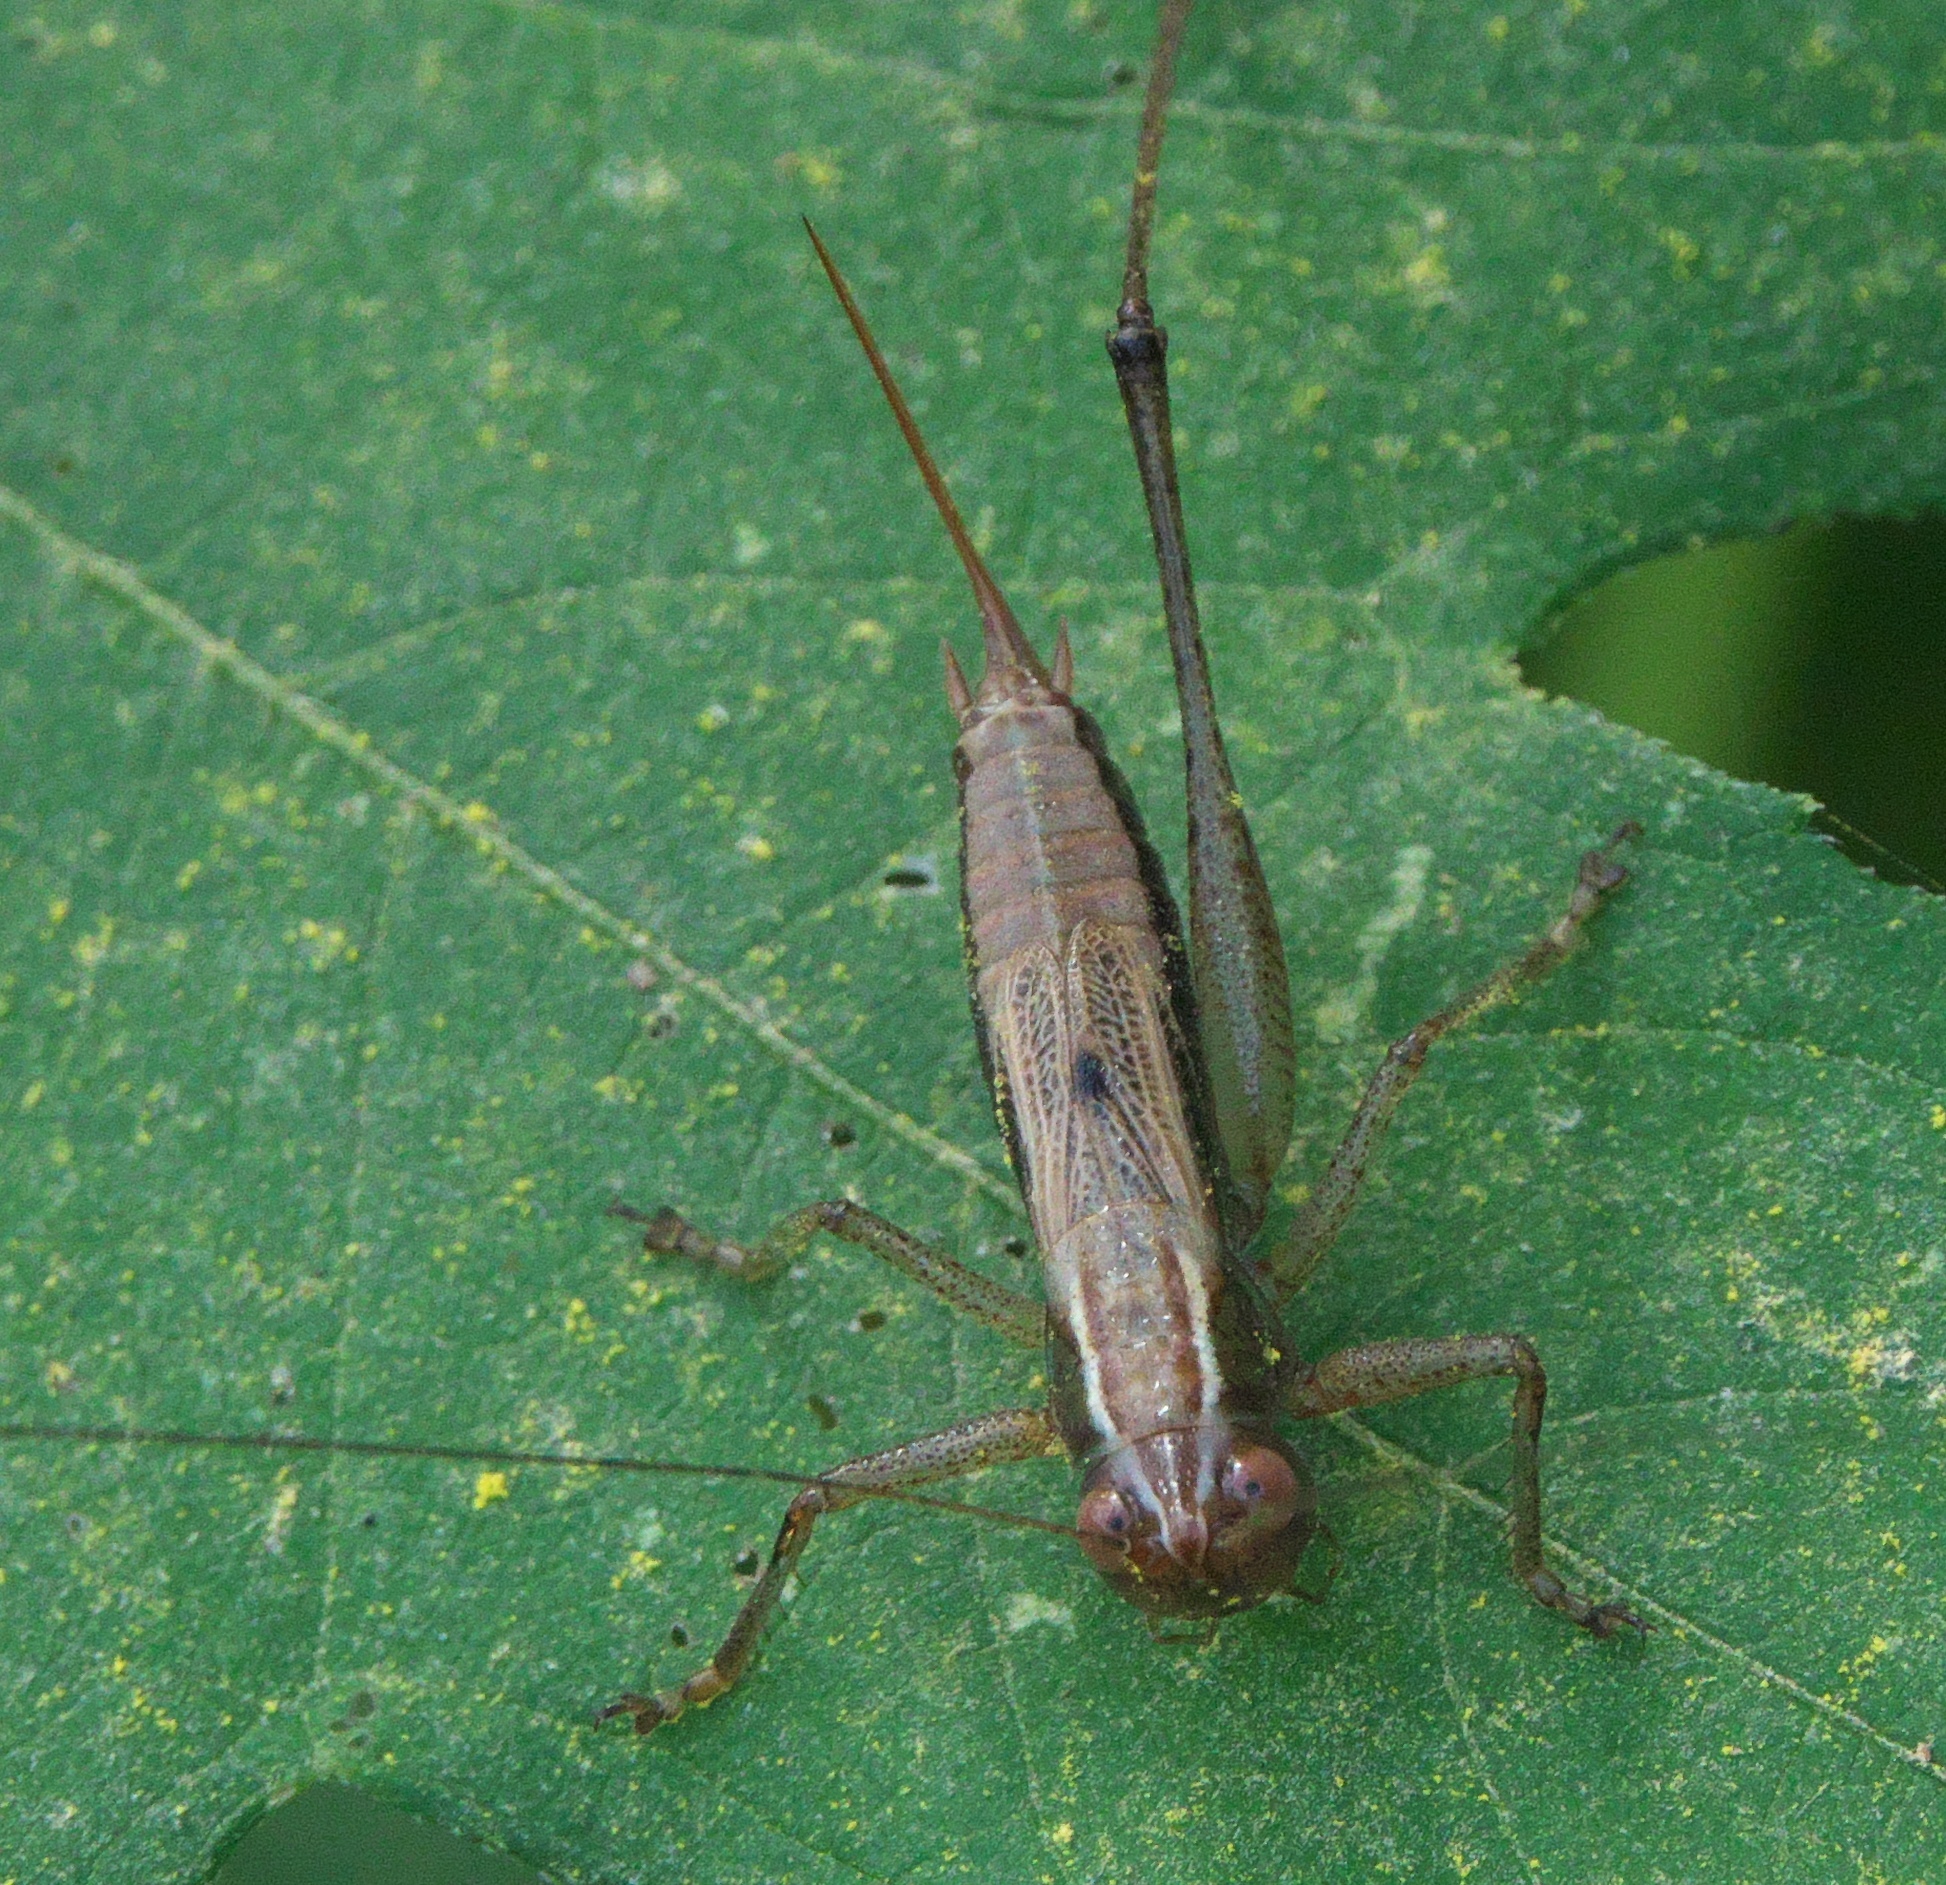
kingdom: Animalia
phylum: Arthropoda
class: Insecta
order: Orthoptera
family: Tettigoniidae
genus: Conocephalus
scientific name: Conocephalus nemoralis
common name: Woodland meadow katydid
